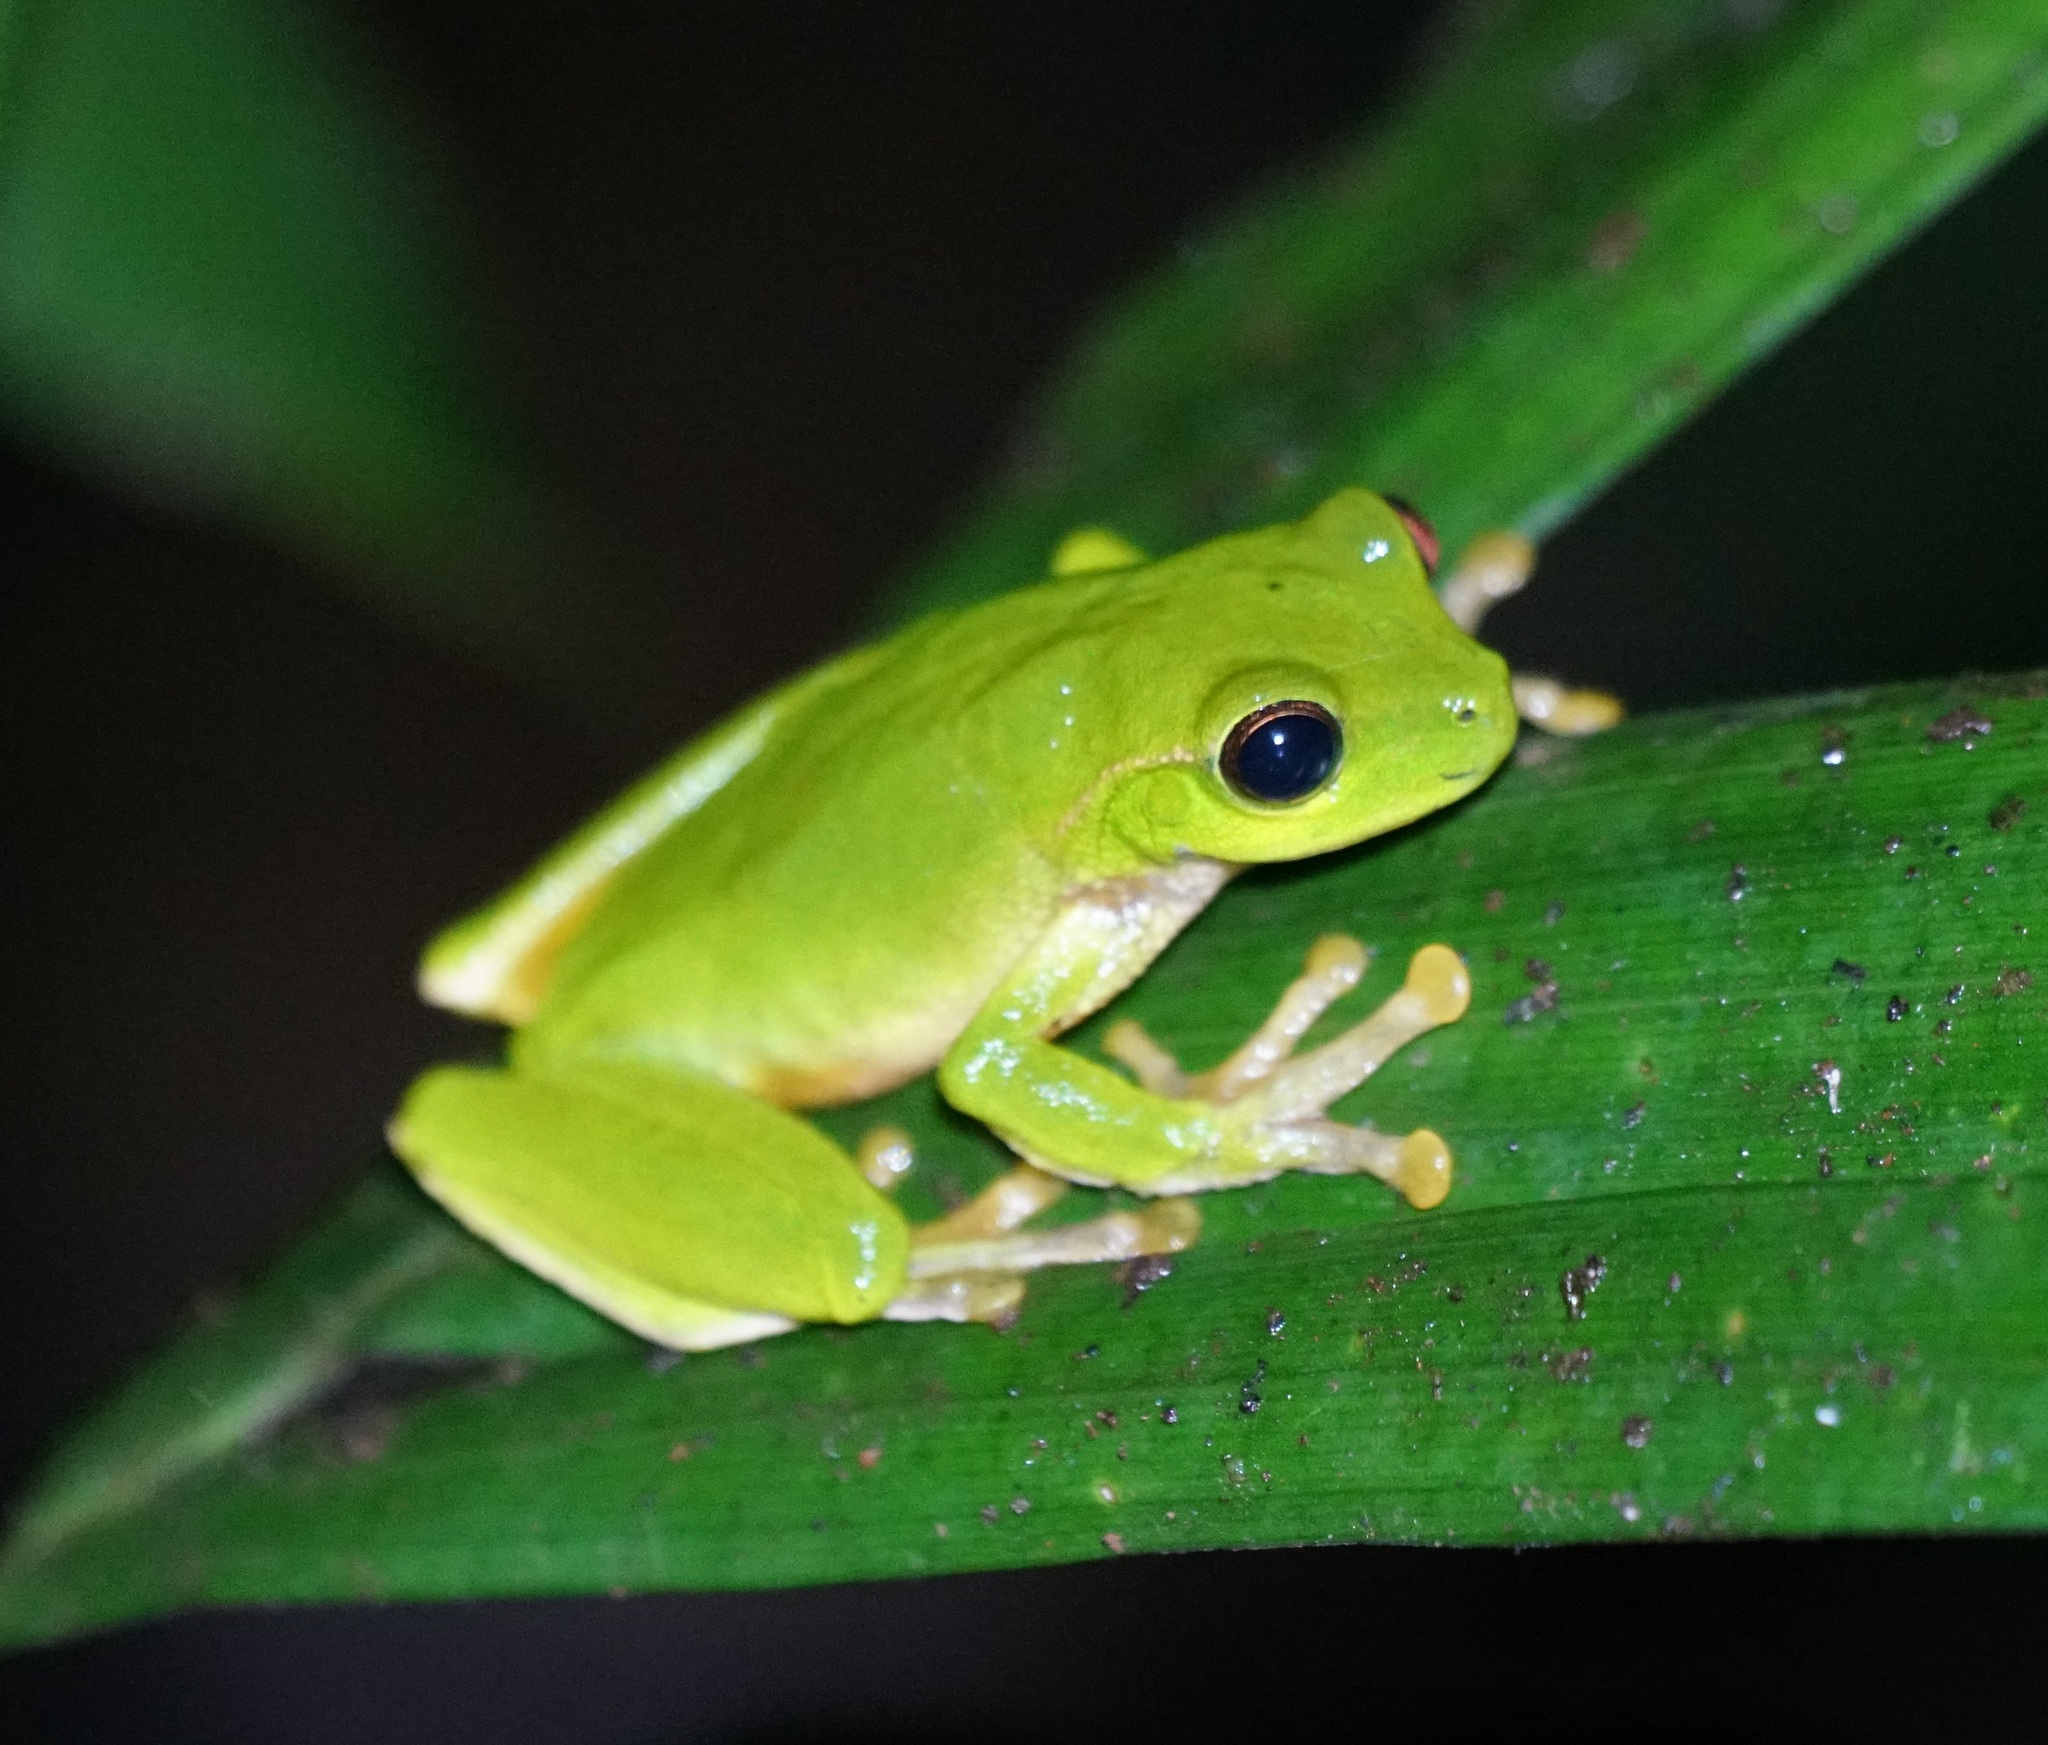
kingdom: Animalia
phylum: Chordata
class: Amphibia
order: Anura
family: Pelodryadidae
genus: Ranoidea
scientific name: Ranoidea barringtonensis
